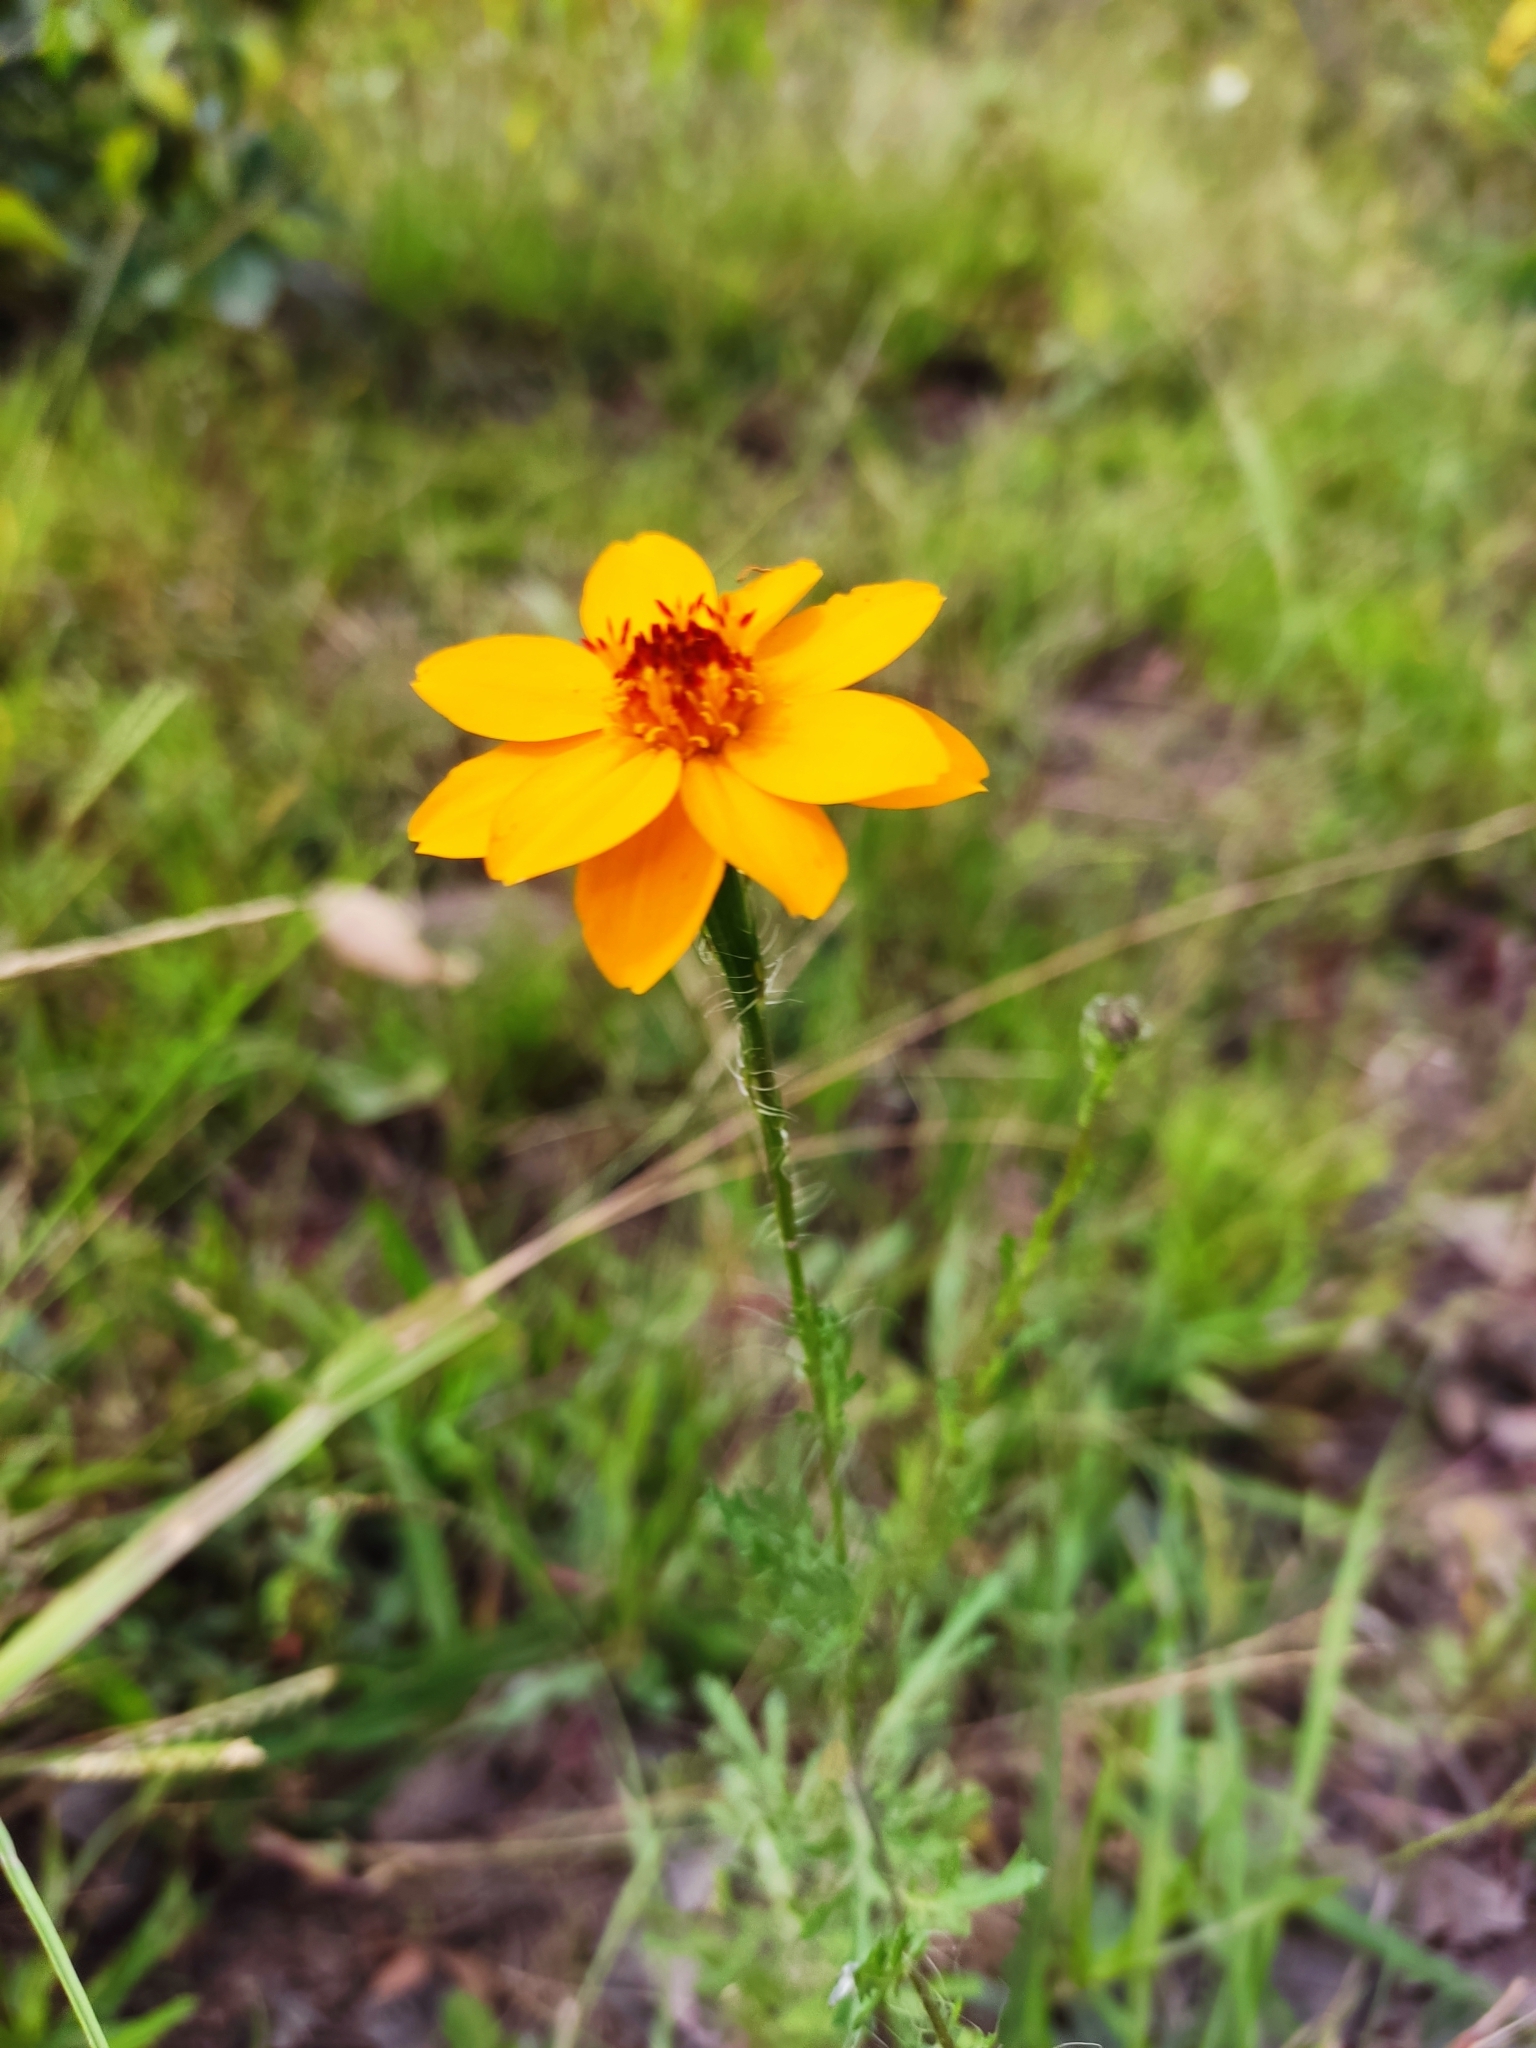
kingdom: Plantae
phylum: Tracheophyta
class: Magnoliopsida
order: Asterales
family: Asteraceae
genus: Adenophyllum
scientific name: Adenophyllum cancellatum
